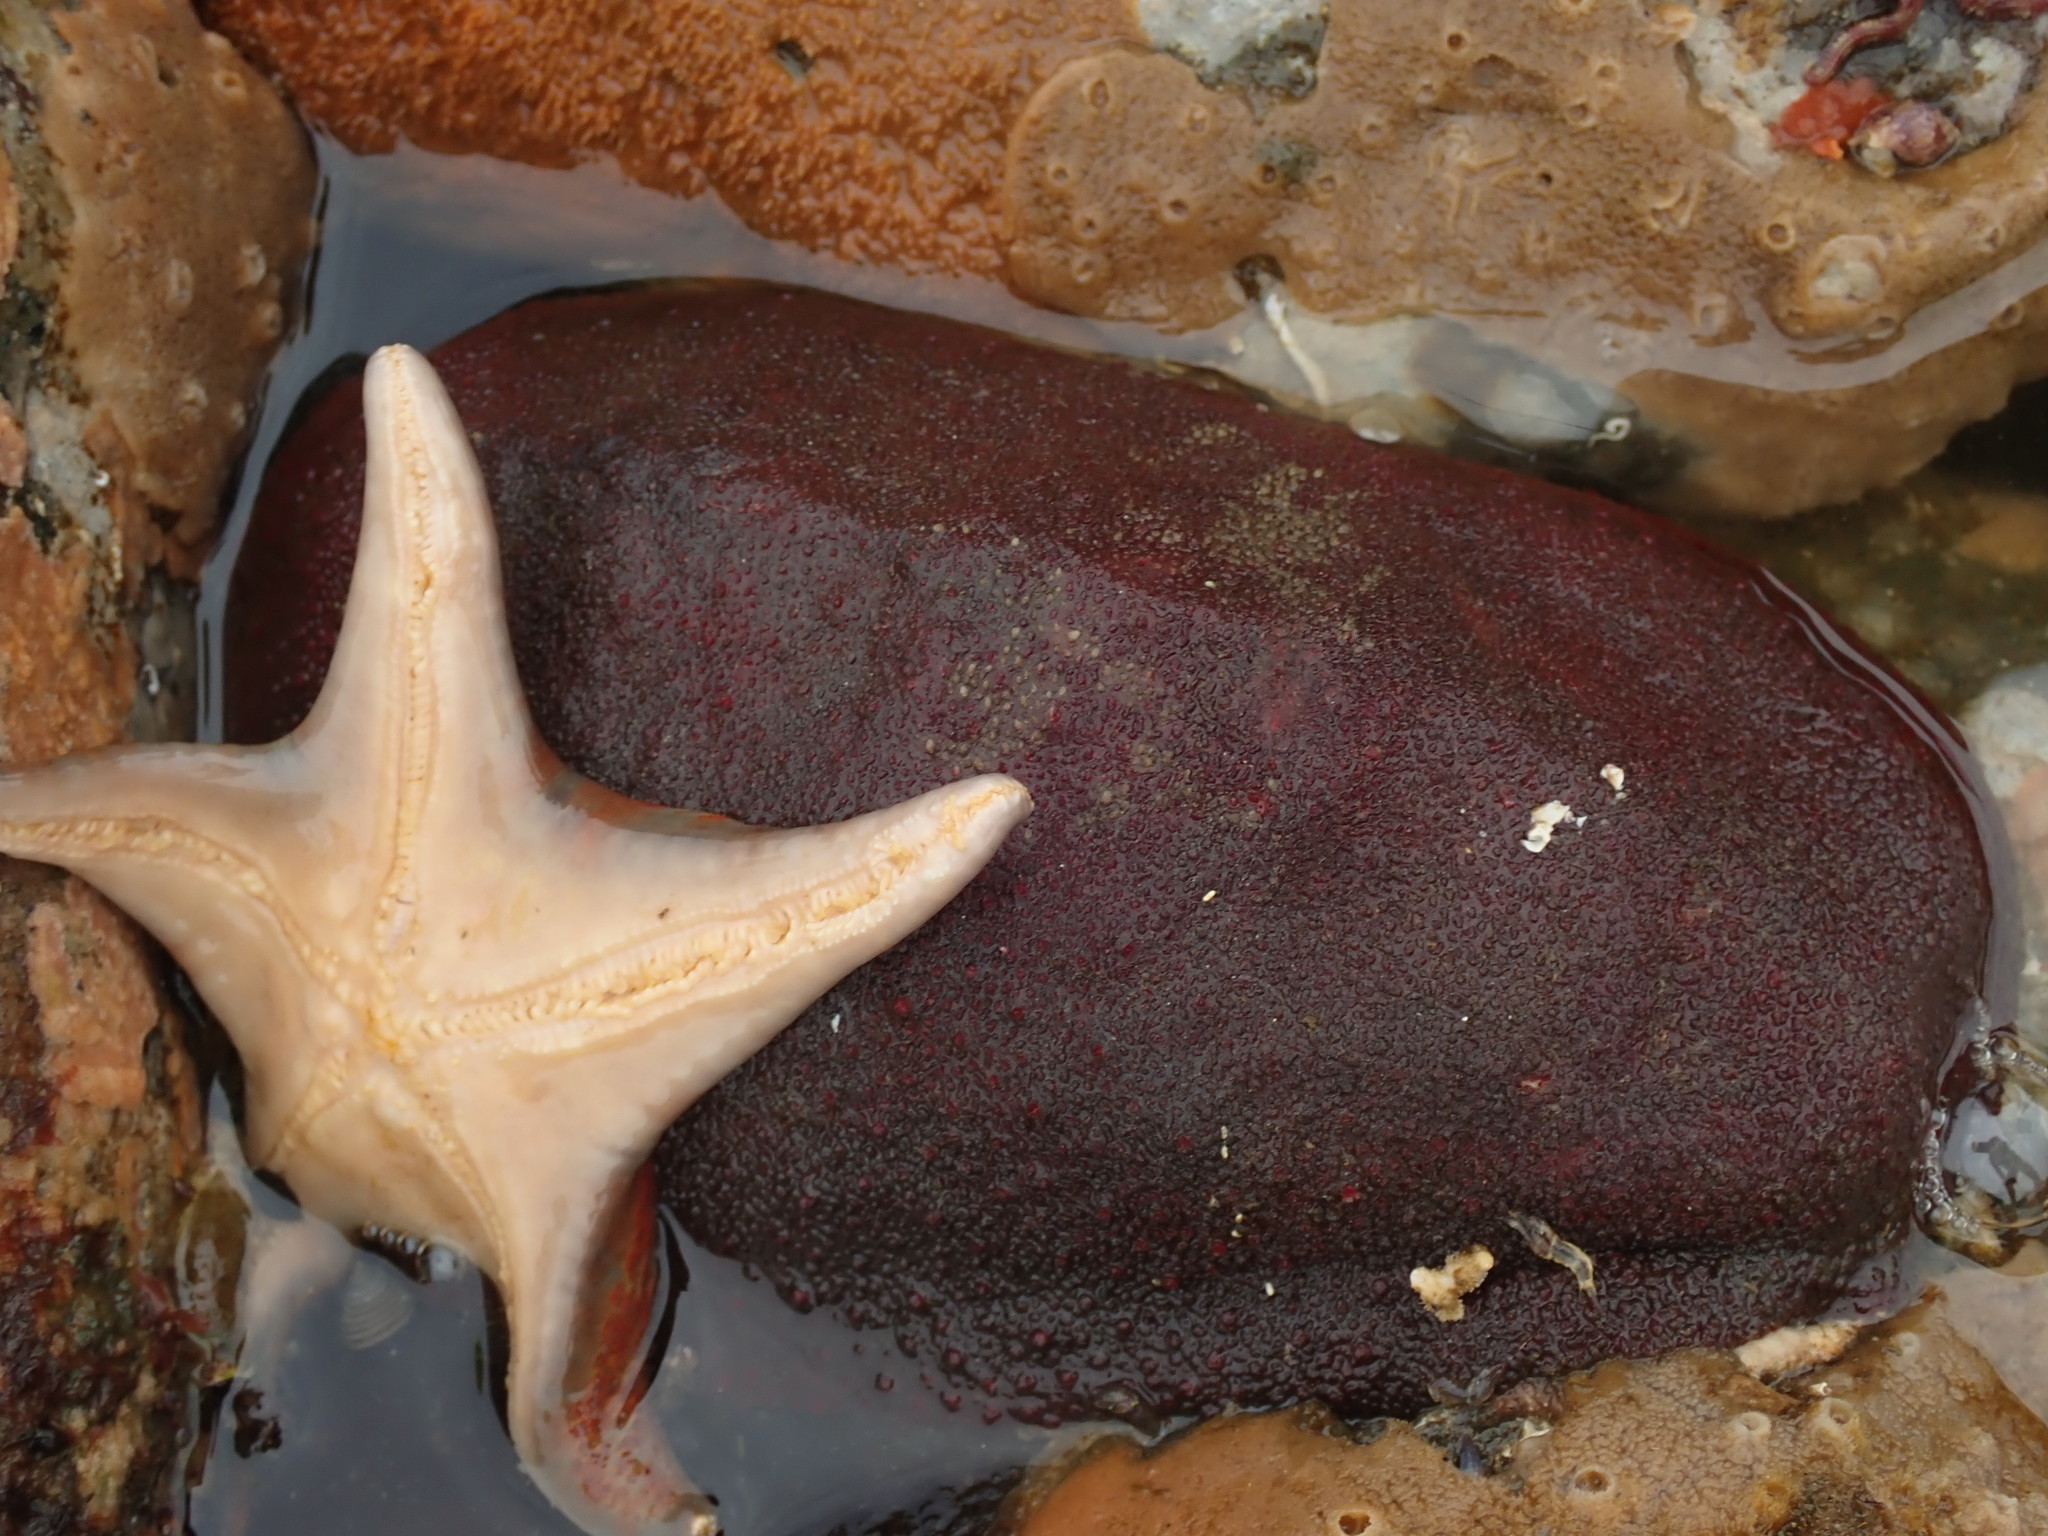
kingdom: Animalia
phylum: Mollusca
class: Polyplacophora
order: Chitonida
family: Acanthochitonidae
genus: Cryptochiton
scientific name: Cryptochiton stelleri
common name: Giant pacific chiton
